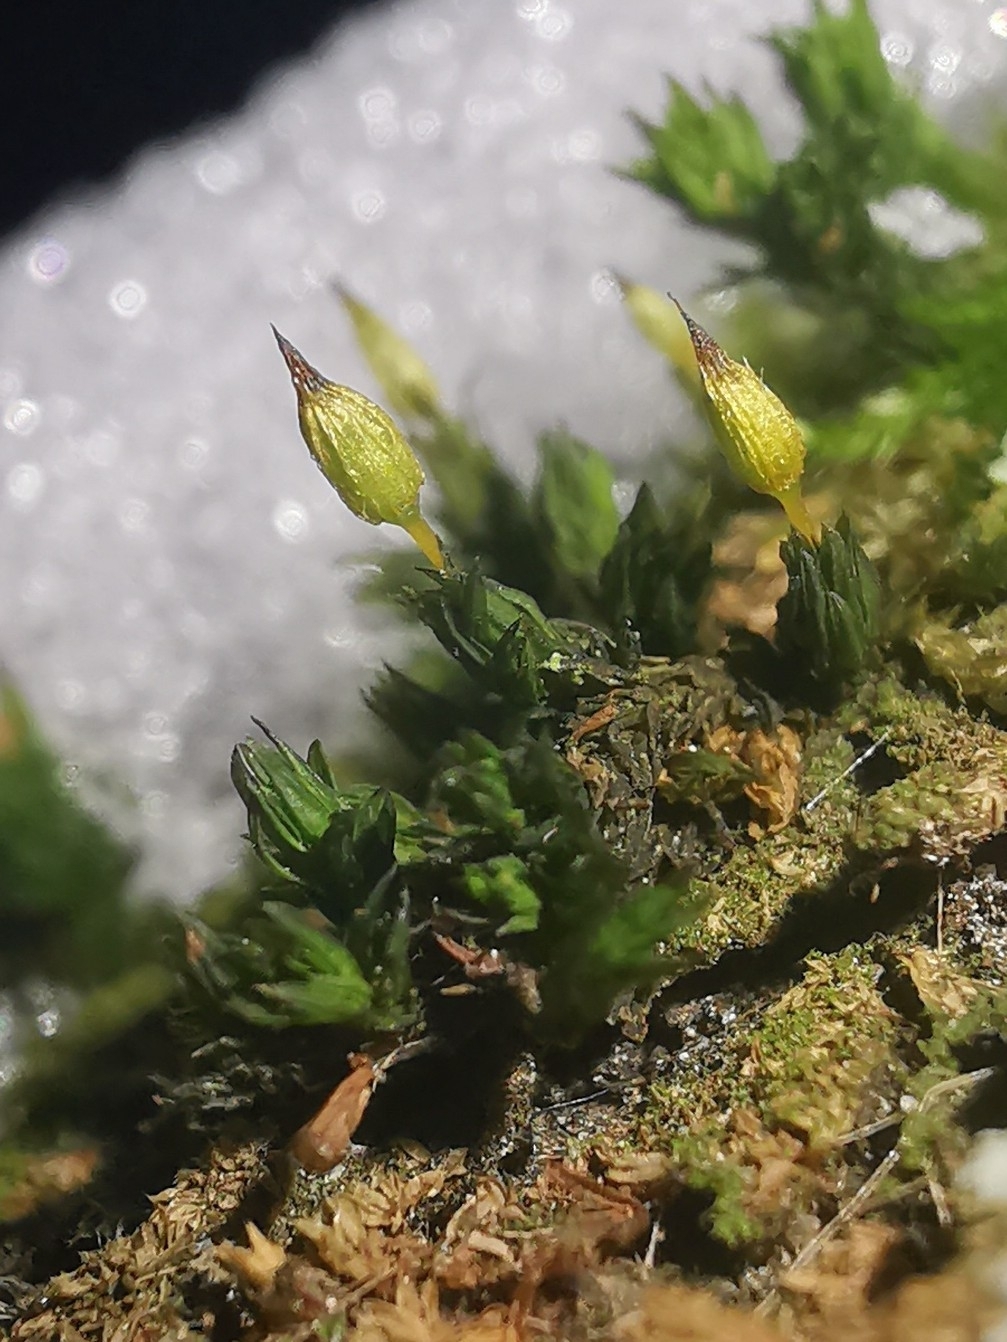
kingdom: Plantae
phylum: Bryophyta
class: Bryopsida
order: Orthotrichales
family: Orthotrichaceae
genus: Orthotrichum
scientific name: Orthotrichum anomalum
